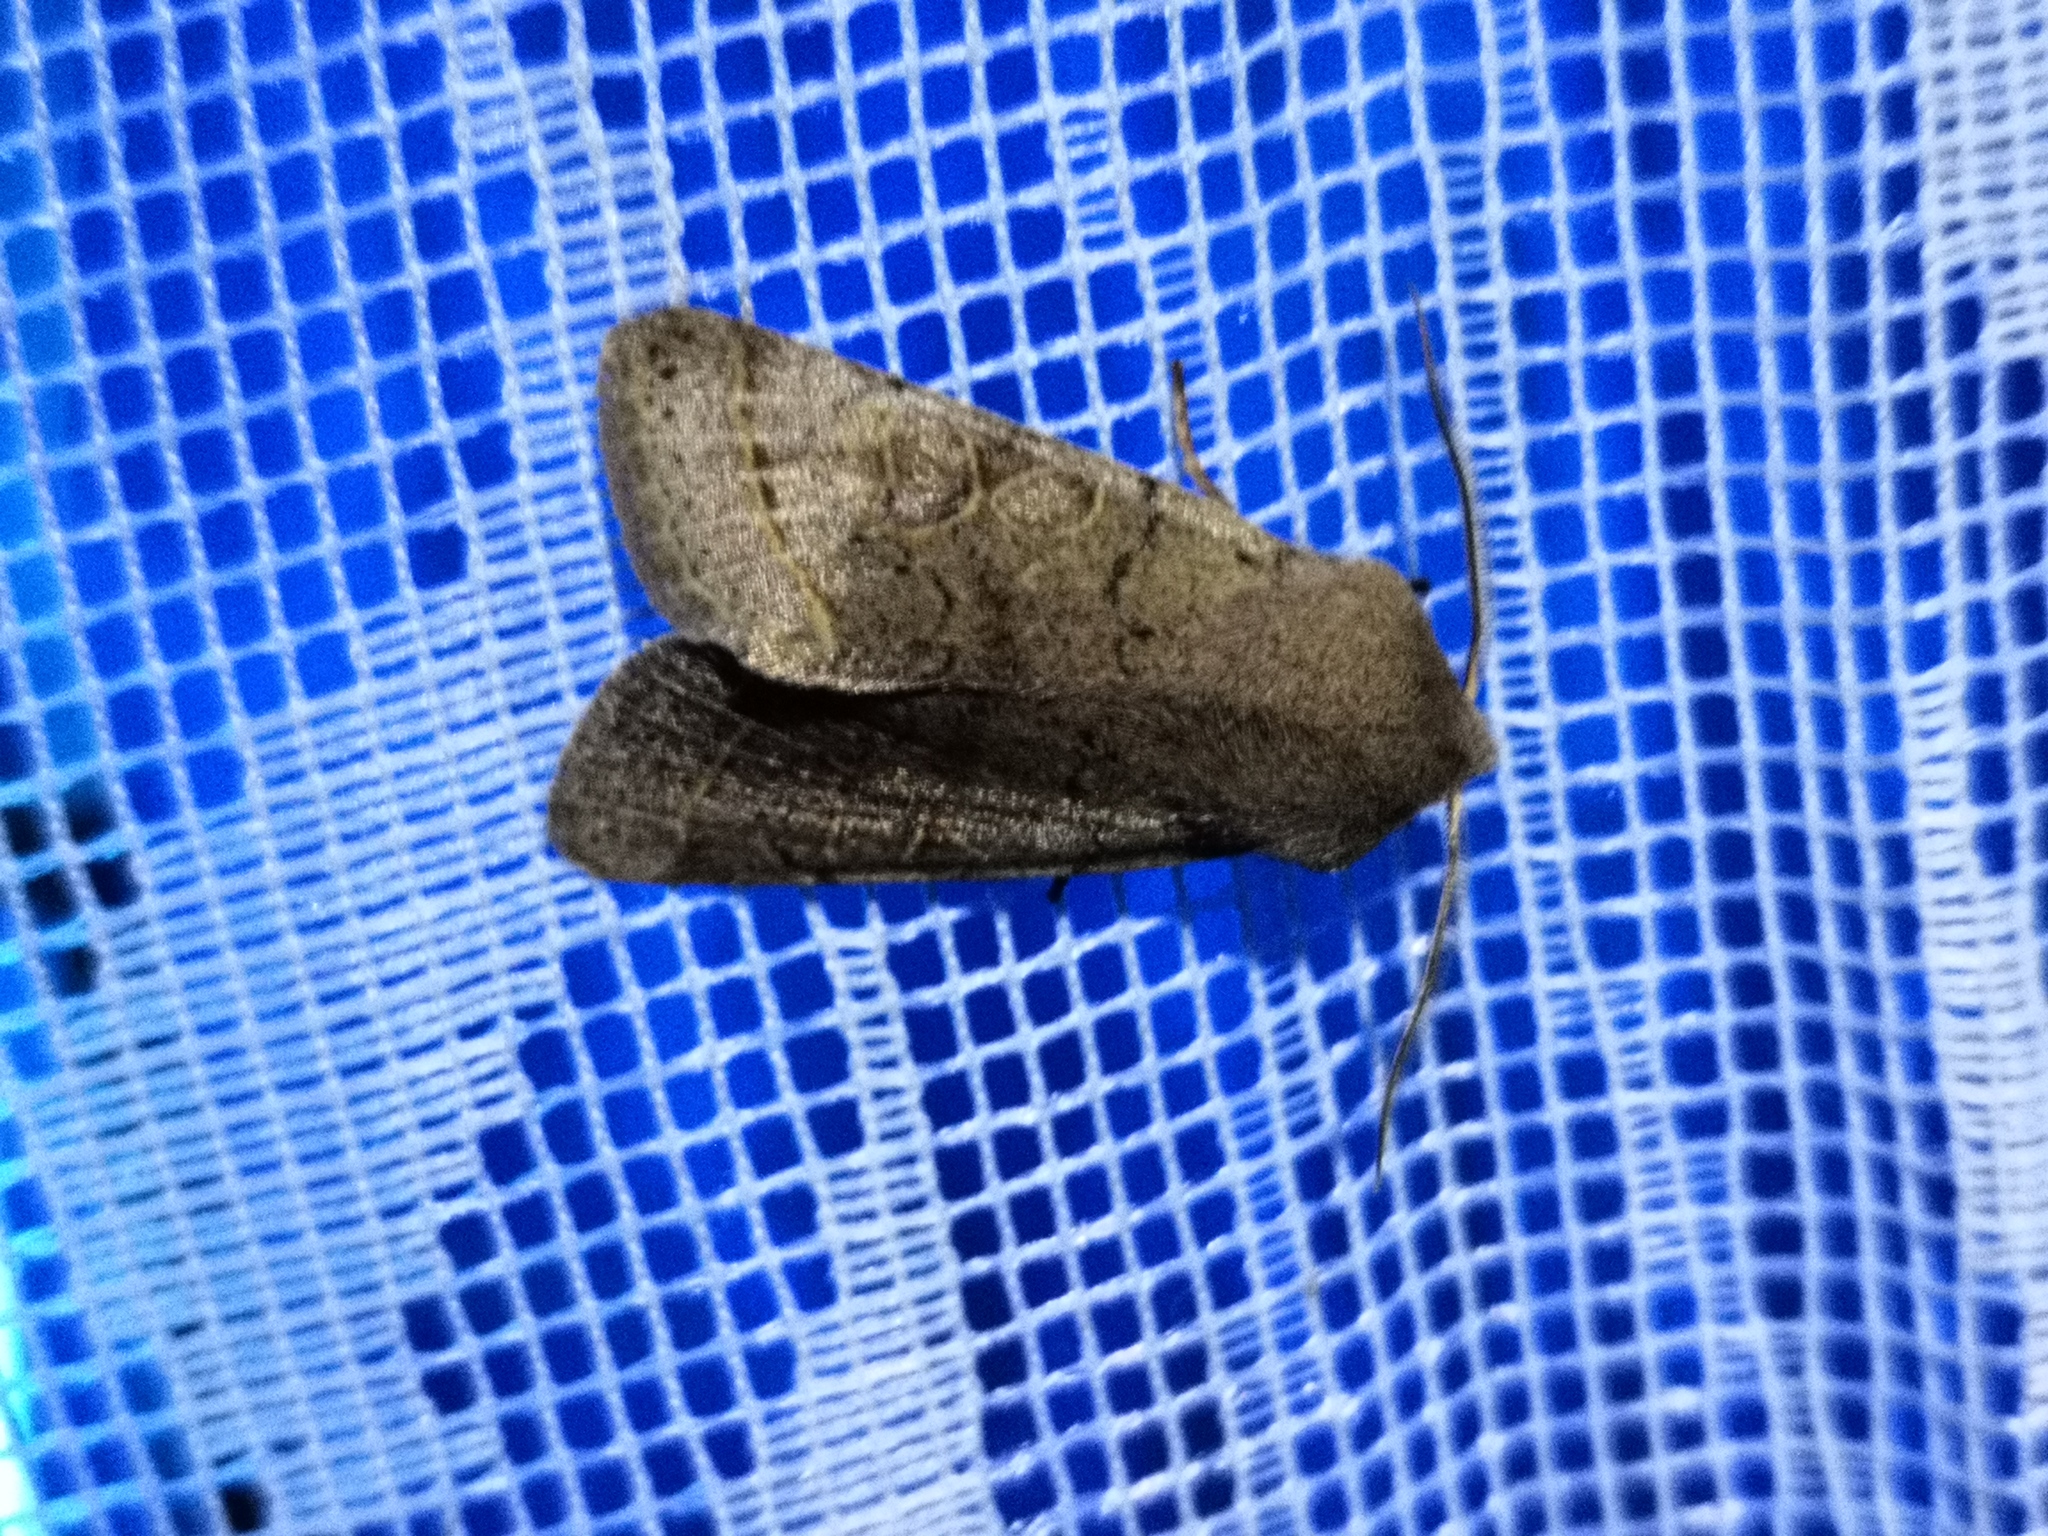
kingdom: Animalia
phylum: Arthropoda
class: Insecta
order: Lepidoptera
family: Noctuidae
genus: Orthosia
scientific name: Orthosia cerasi
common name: Common quaker
